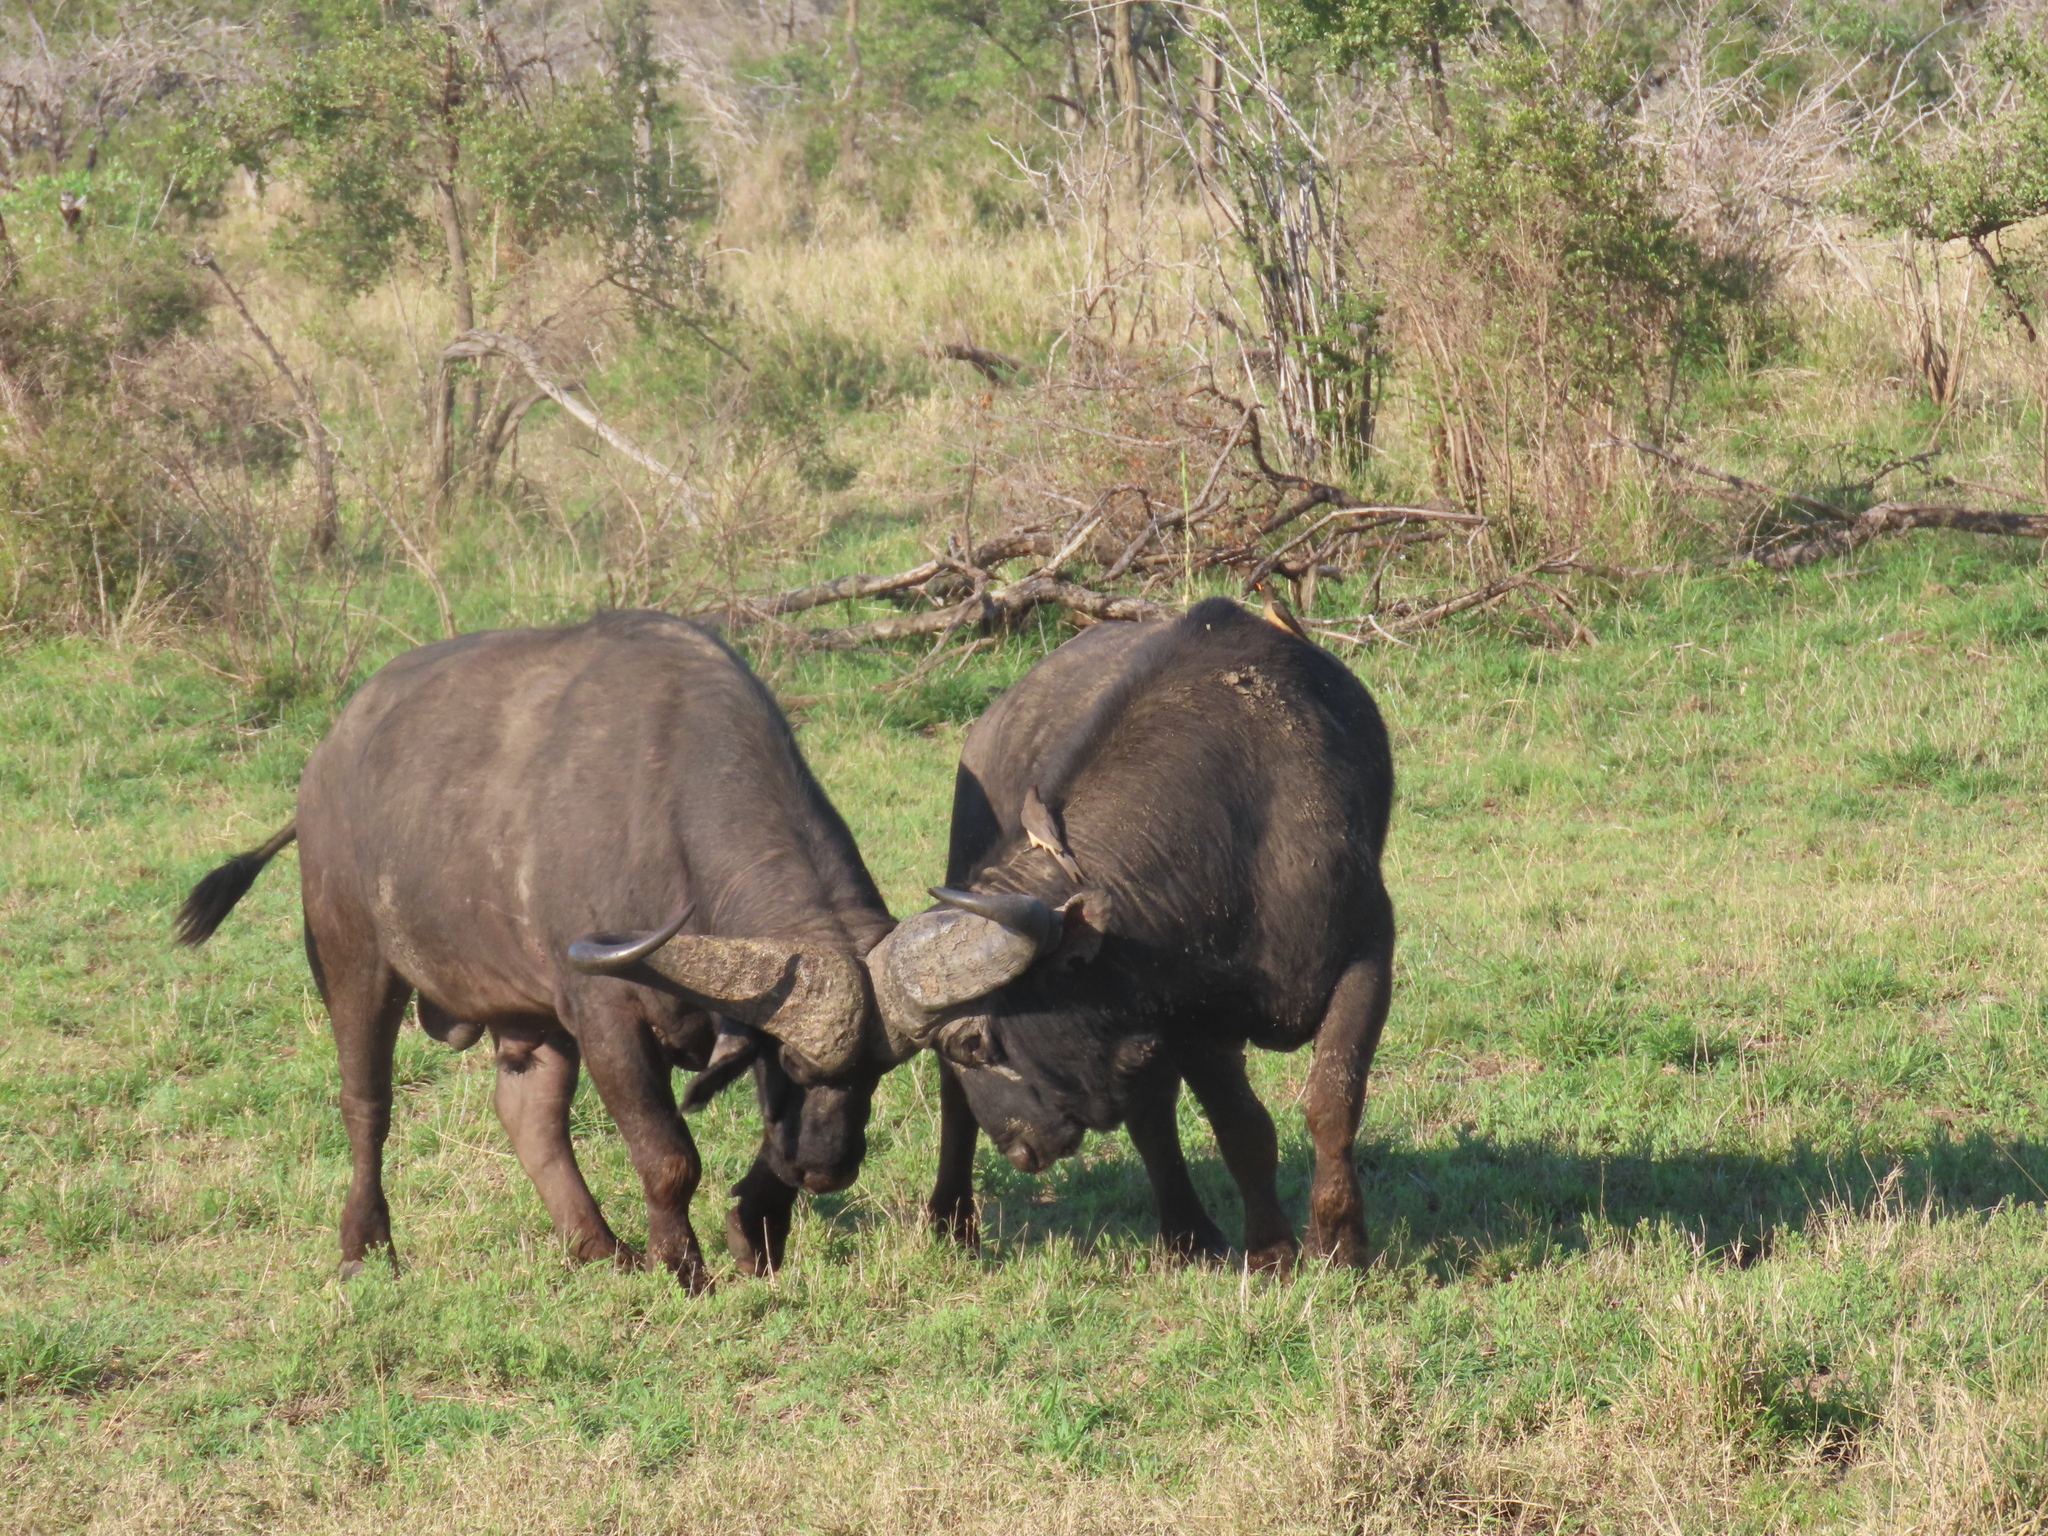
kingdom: Animalia
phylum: Chordata
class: Mammalia
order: Artiodactyla
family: Bovidae
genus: Syncerus
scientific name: Syncerus caffer
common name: African buffalo
